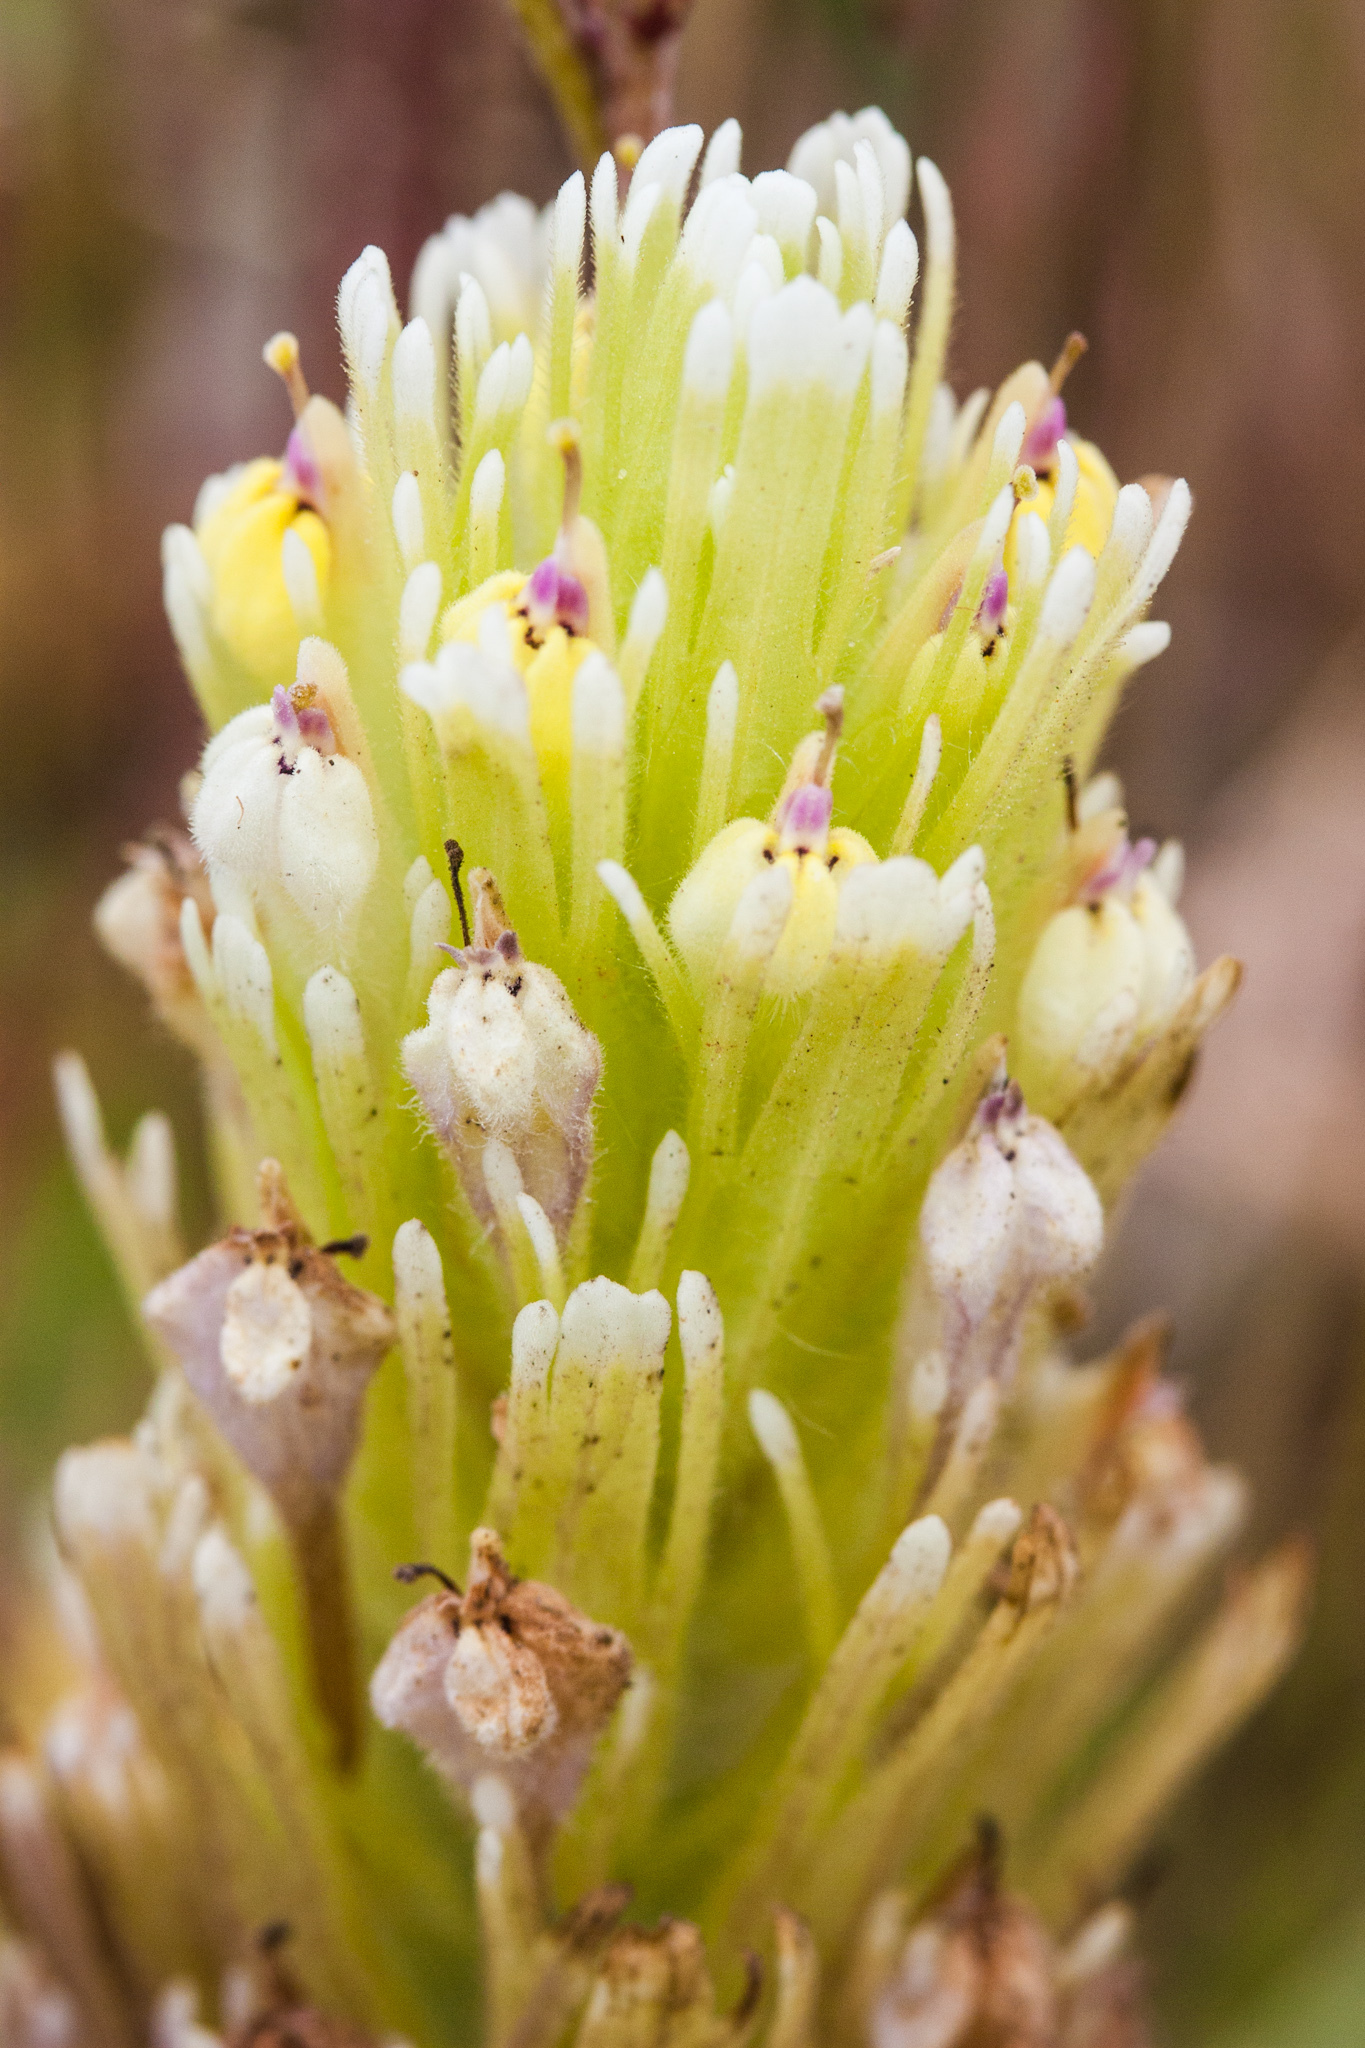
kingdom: Plantae
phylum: Tracheophyta
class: Magnoliopsida
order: Lamiales
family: Orobanchaceae
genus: Castilleja
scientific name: Castilleja ambigua
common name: Johnny-nip
